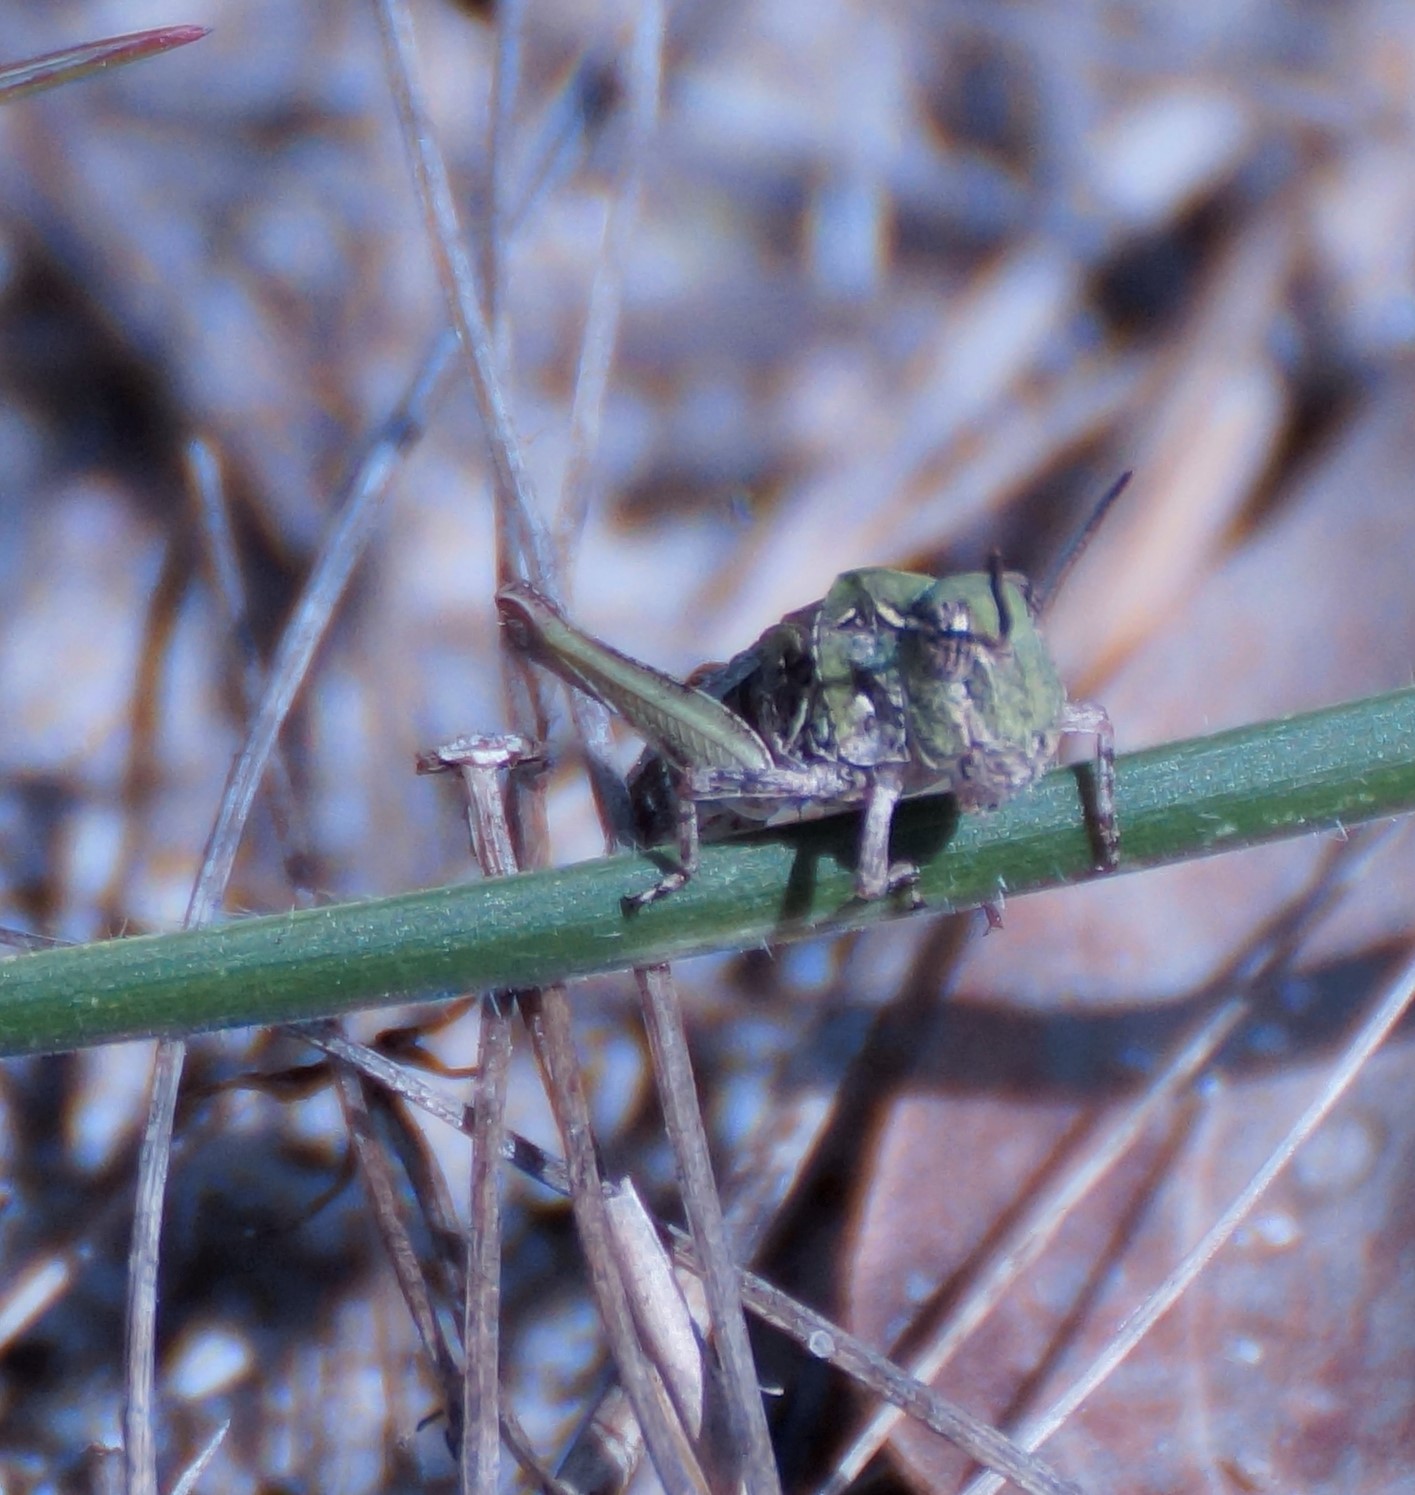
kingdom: Animalia
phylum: Arthropoda
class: Insecta
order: Orthoptera
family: Acrididae
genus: Oedaleus
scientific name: Oedaleus australis
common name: Eastern oedaleus
